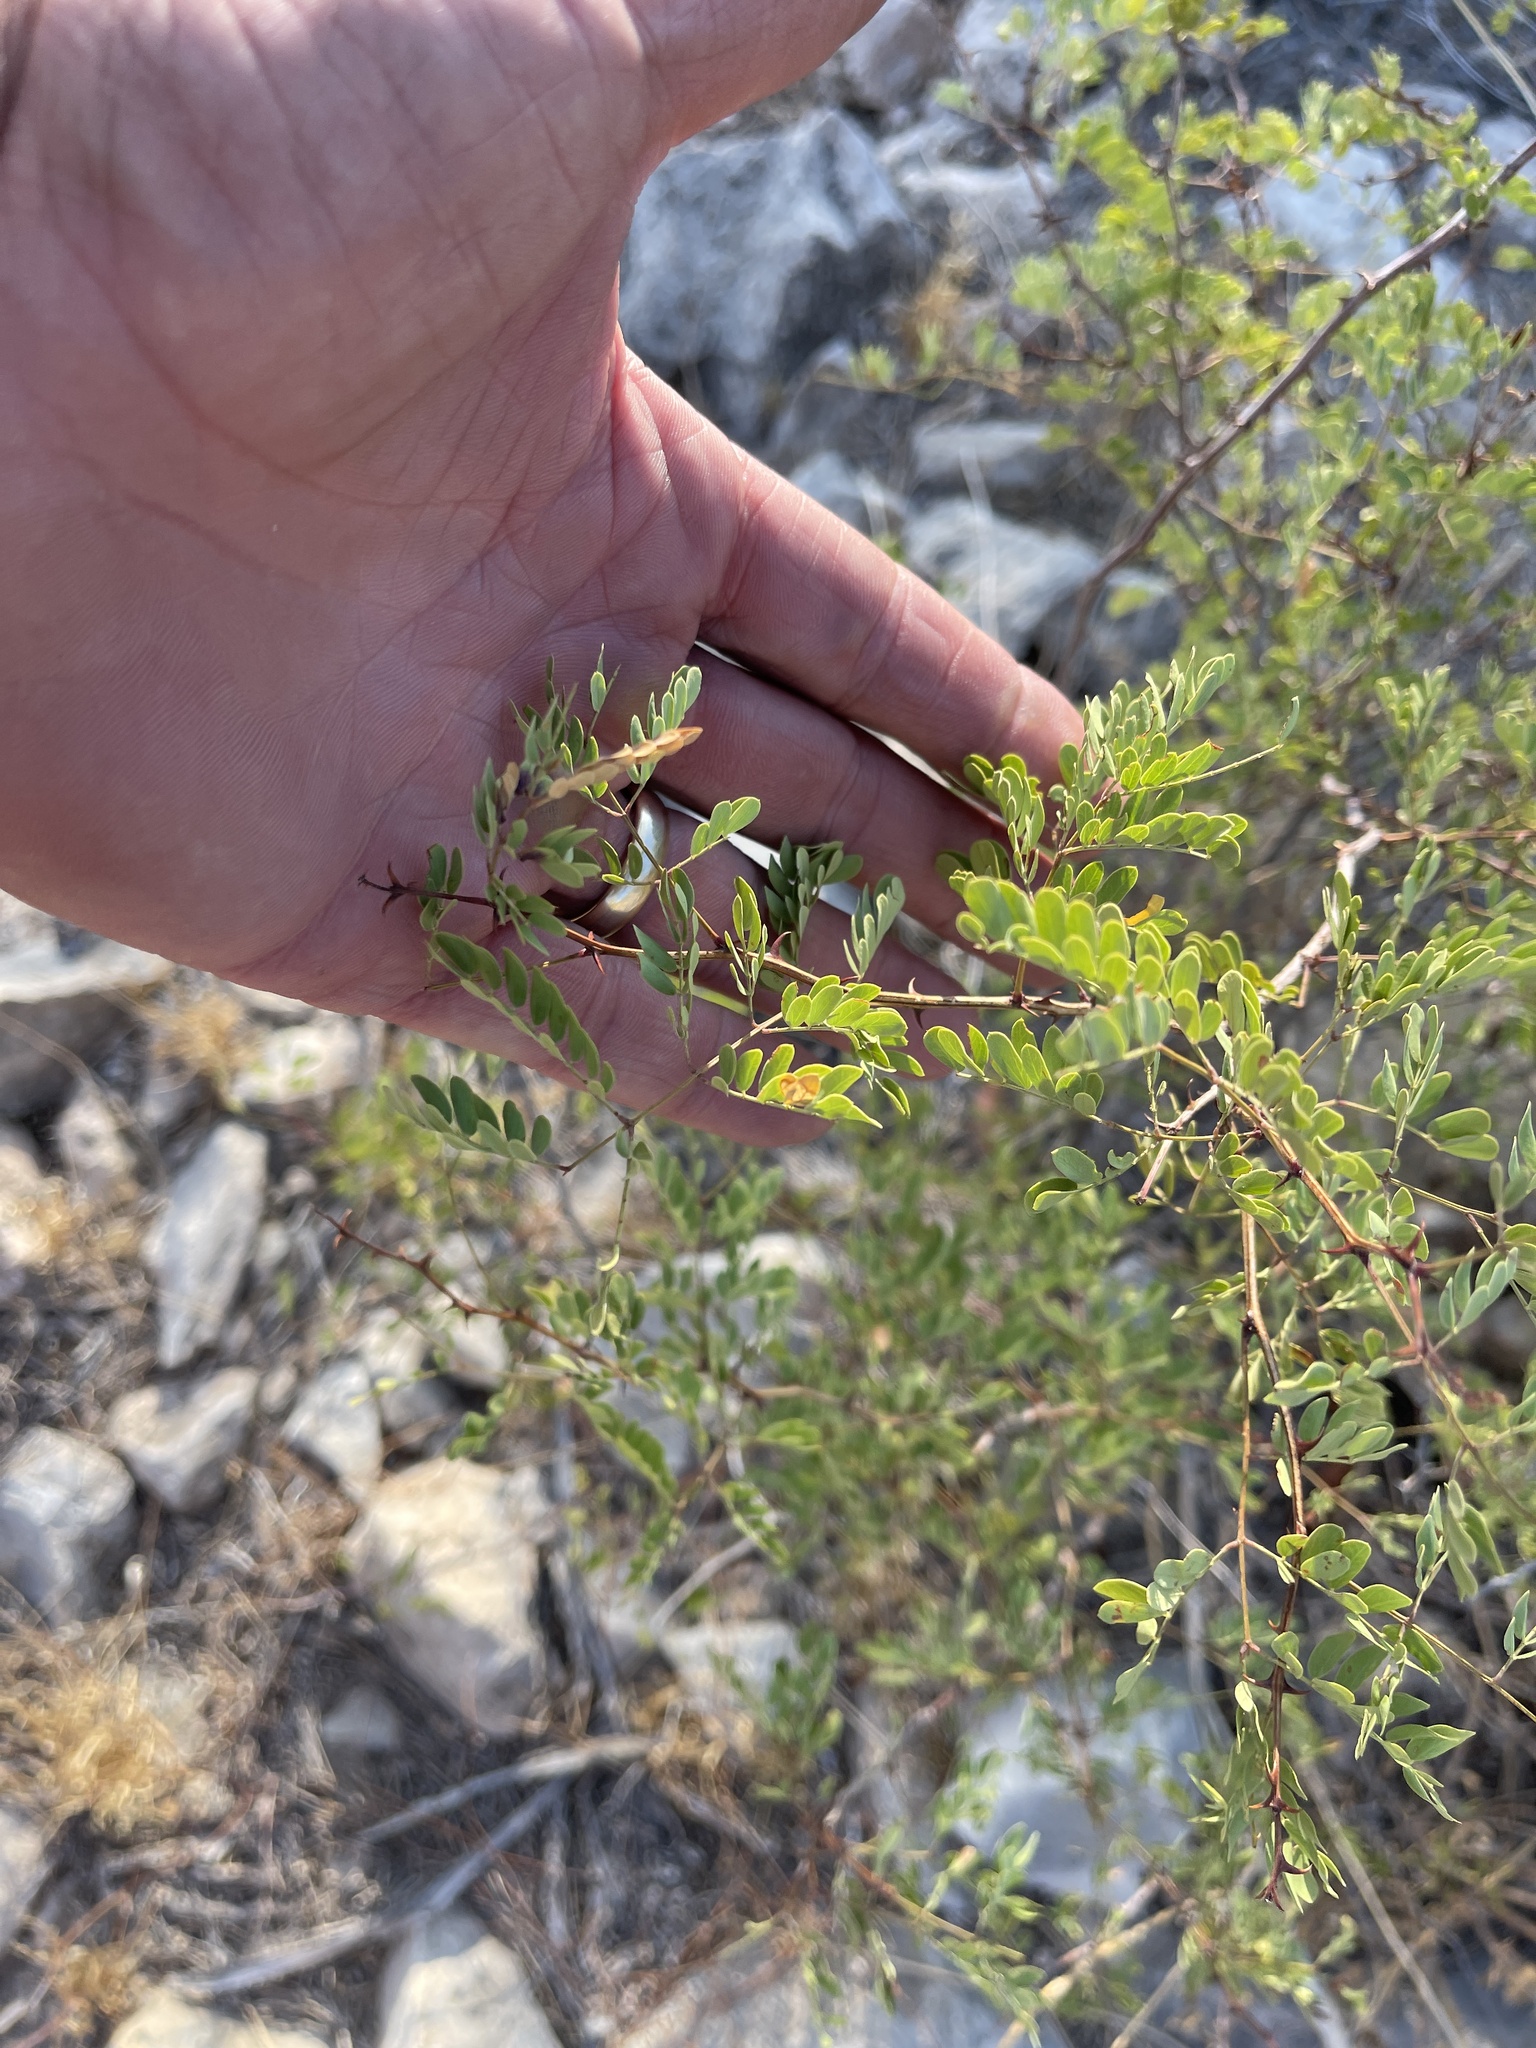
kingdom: Plantae
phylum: Tracheophyta
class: Magnoliopsida
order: Fabales
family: Fabaceae
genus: Senegalia
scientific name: Senegalia roemeriana
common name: Roemer's acacia
